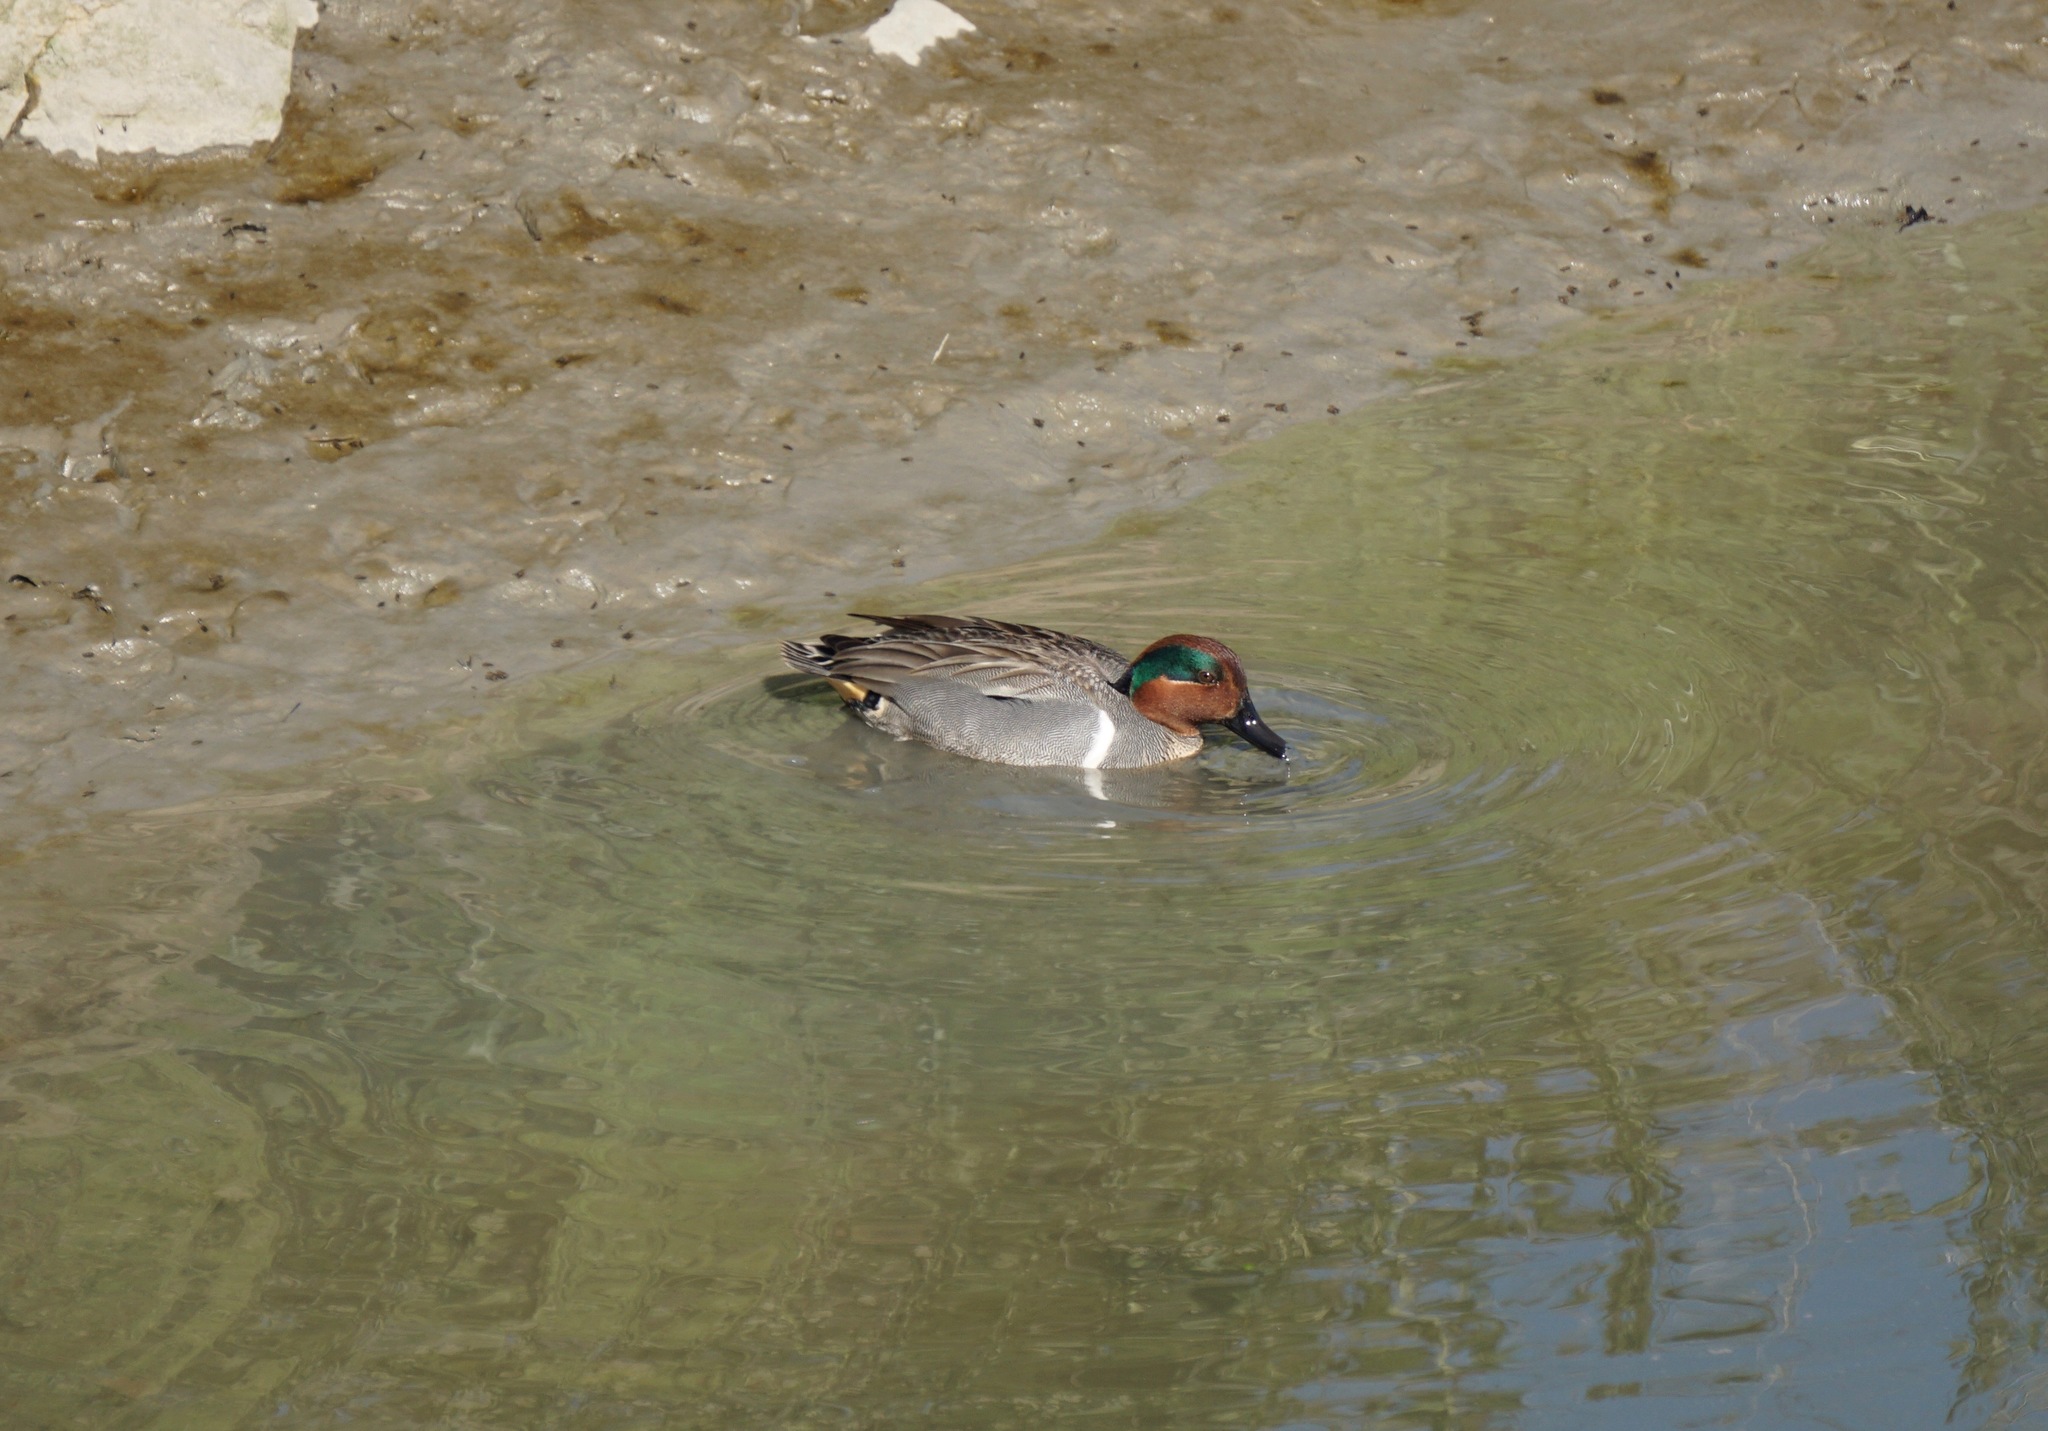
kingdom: Animalia
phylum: Chordata
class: Aves
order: Anseriformes
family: Anatidae
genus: Anas
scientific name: Anas crecca
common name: Eurasian teal
